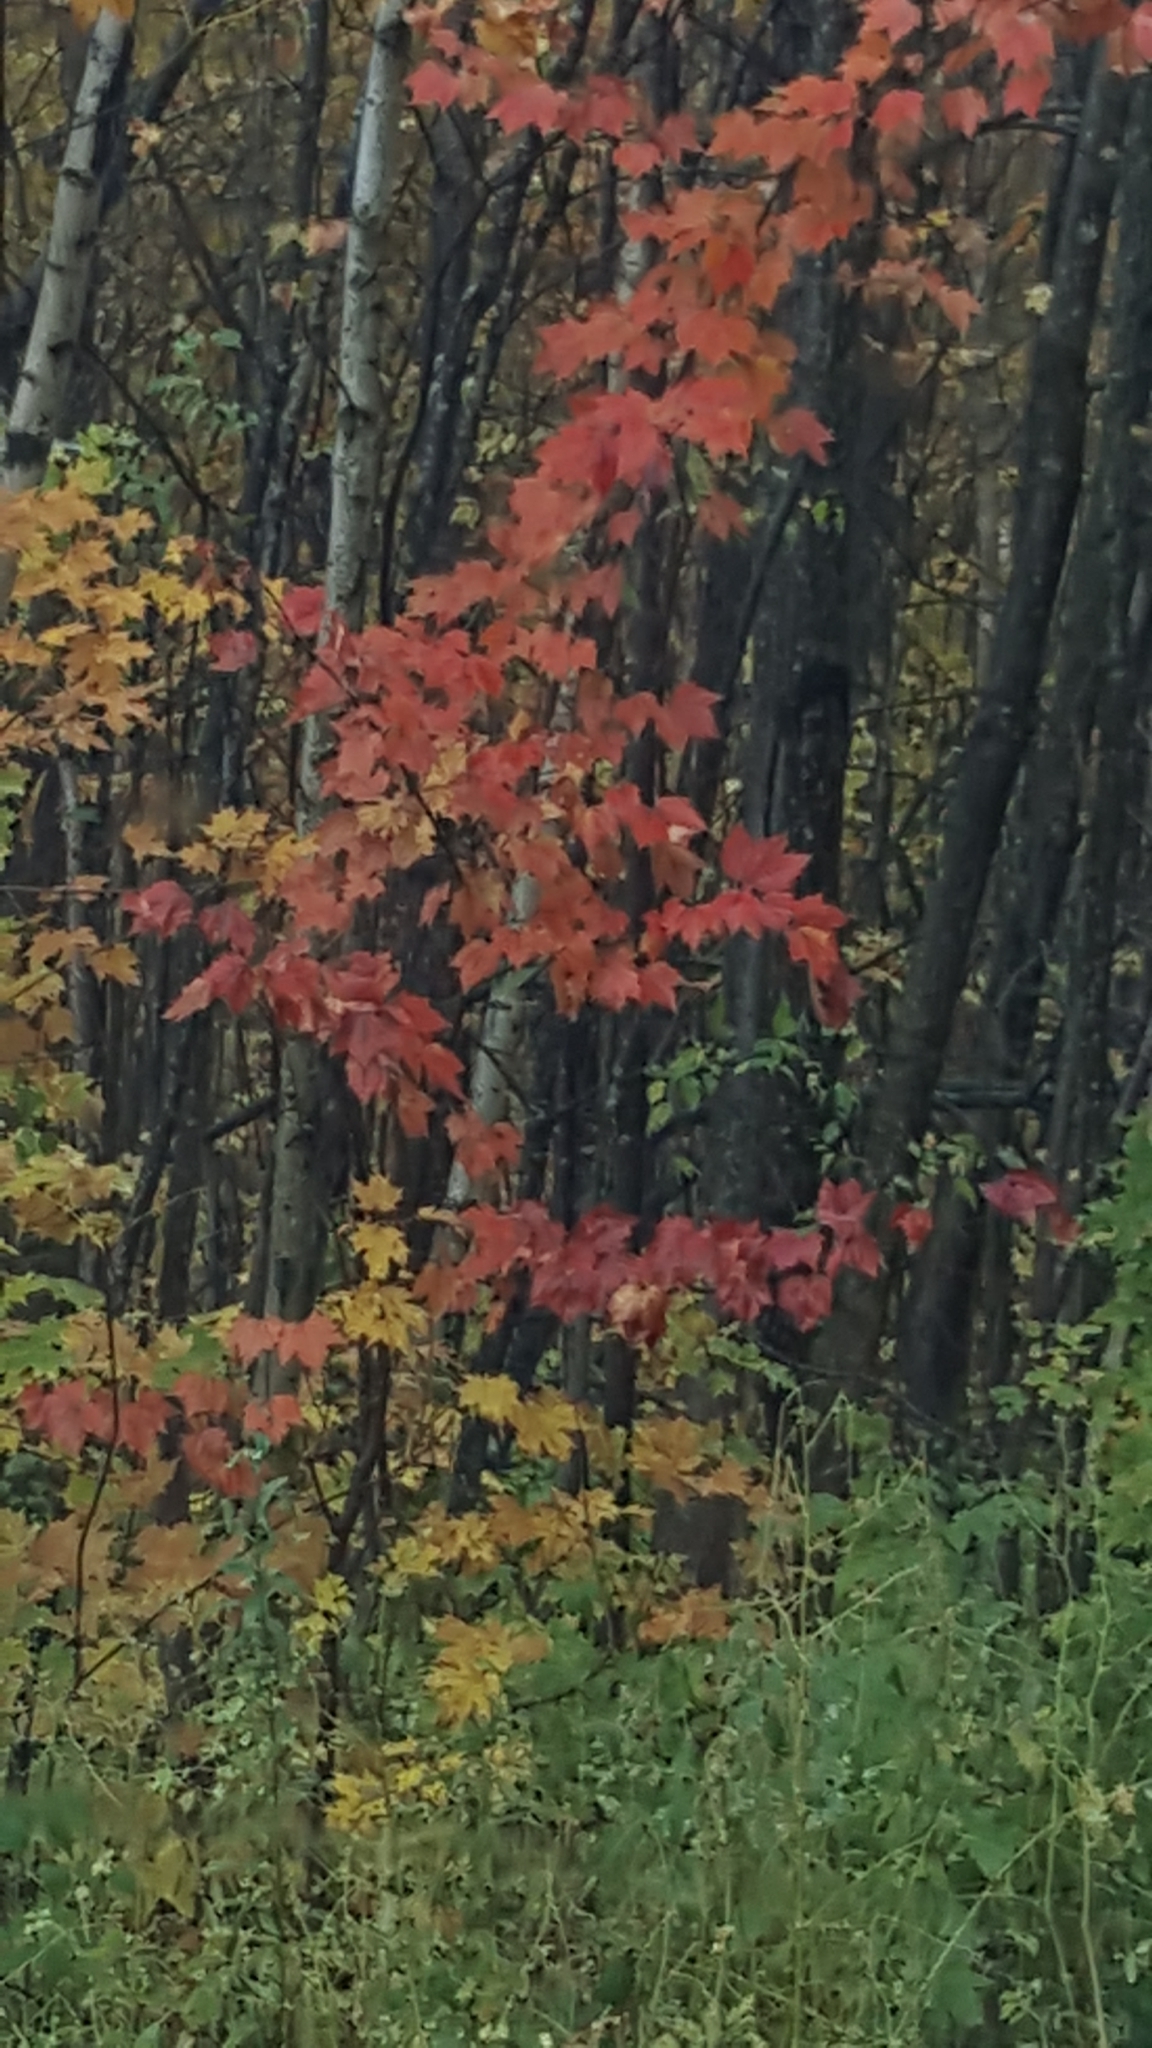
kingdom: Plantae
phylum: Tracheophyta
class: Magnoliopsida
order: Sapindales
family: Sapindaceae
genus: Acer
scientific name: Acer rubrum
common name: Red maple
